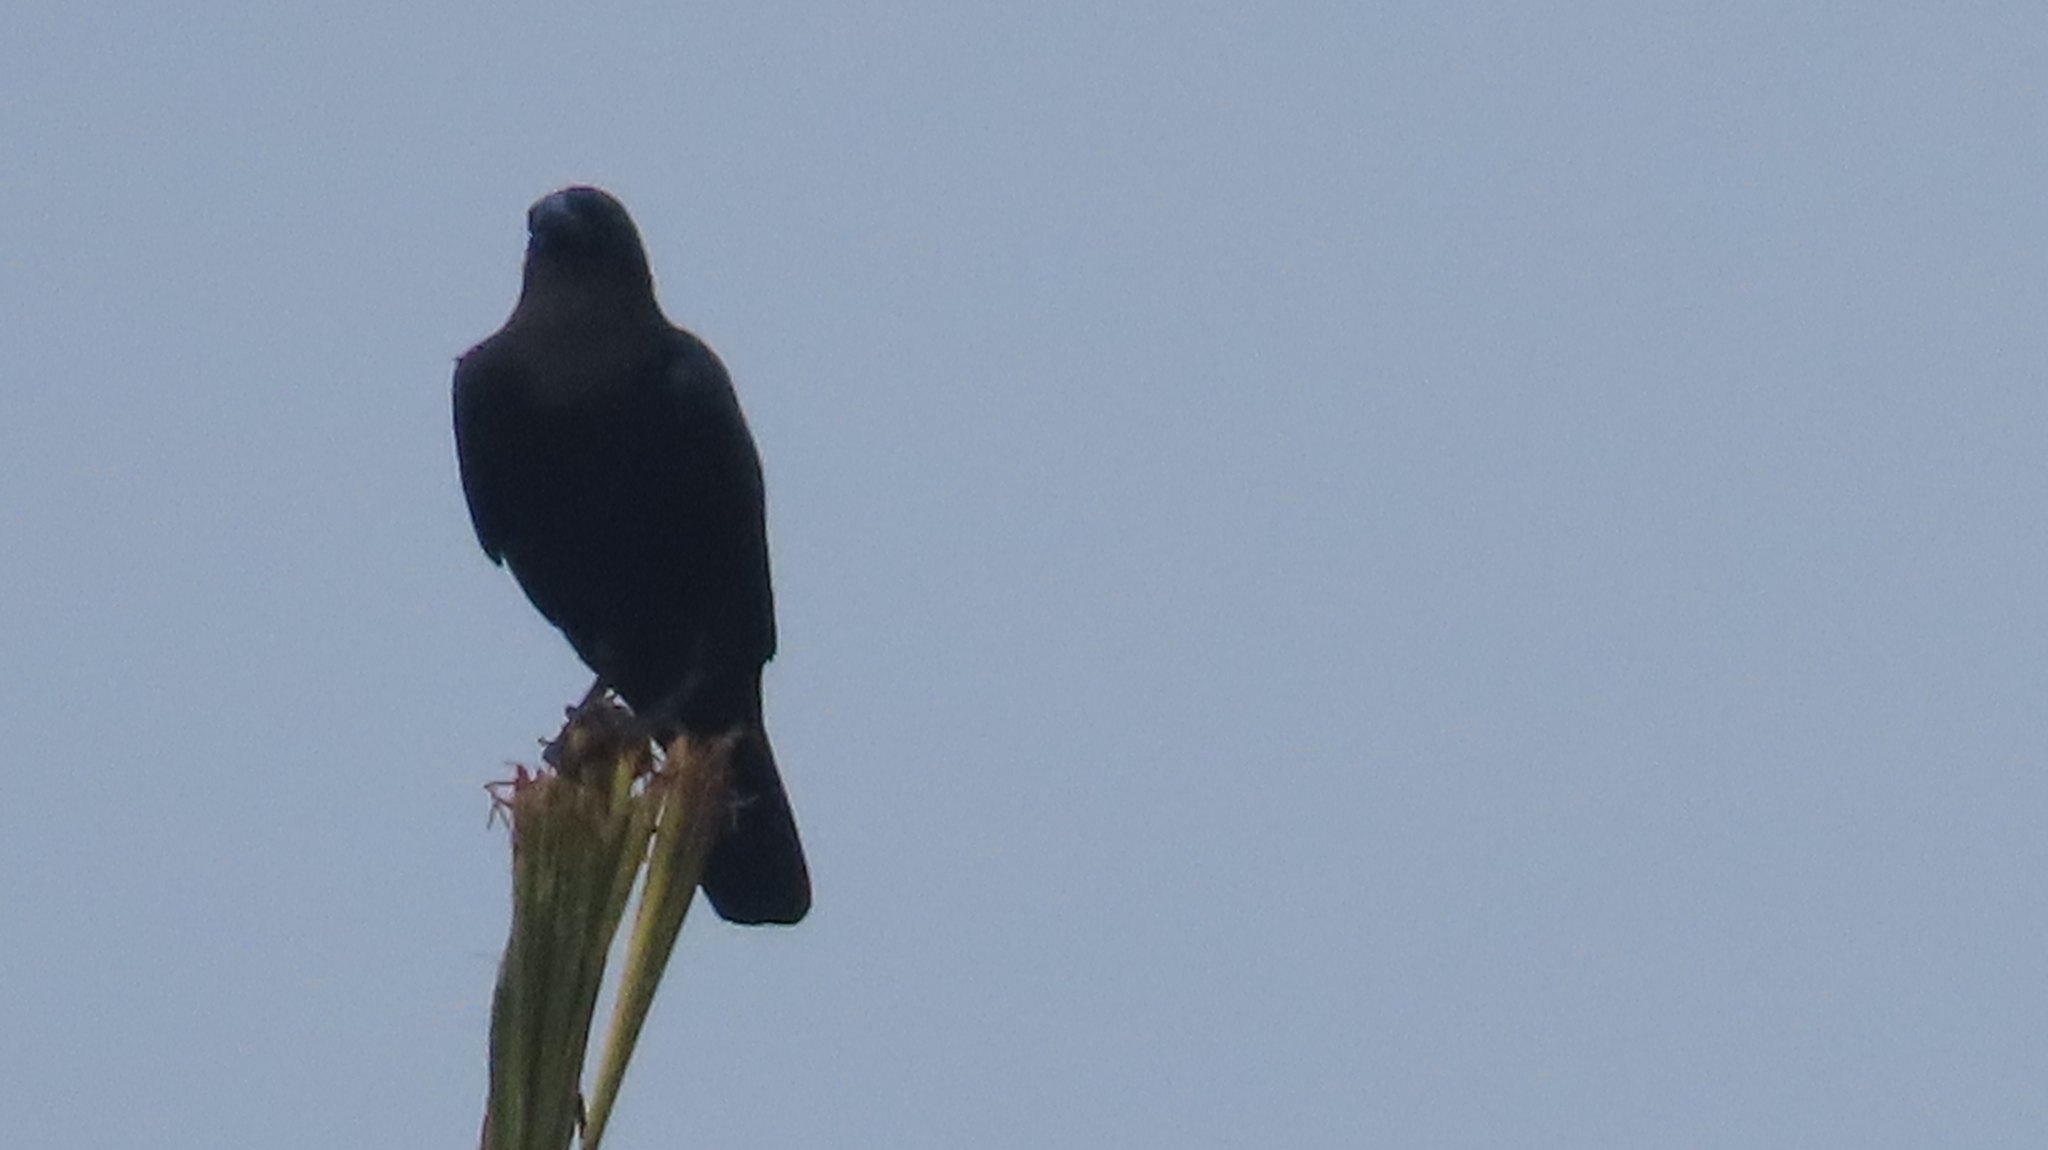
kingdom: Animalia
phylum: Chordata
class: Aves
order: Passeriformes
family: Corvidae
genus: Corvus
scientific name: Corvus macrorhynchos
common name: Large-billed crow
